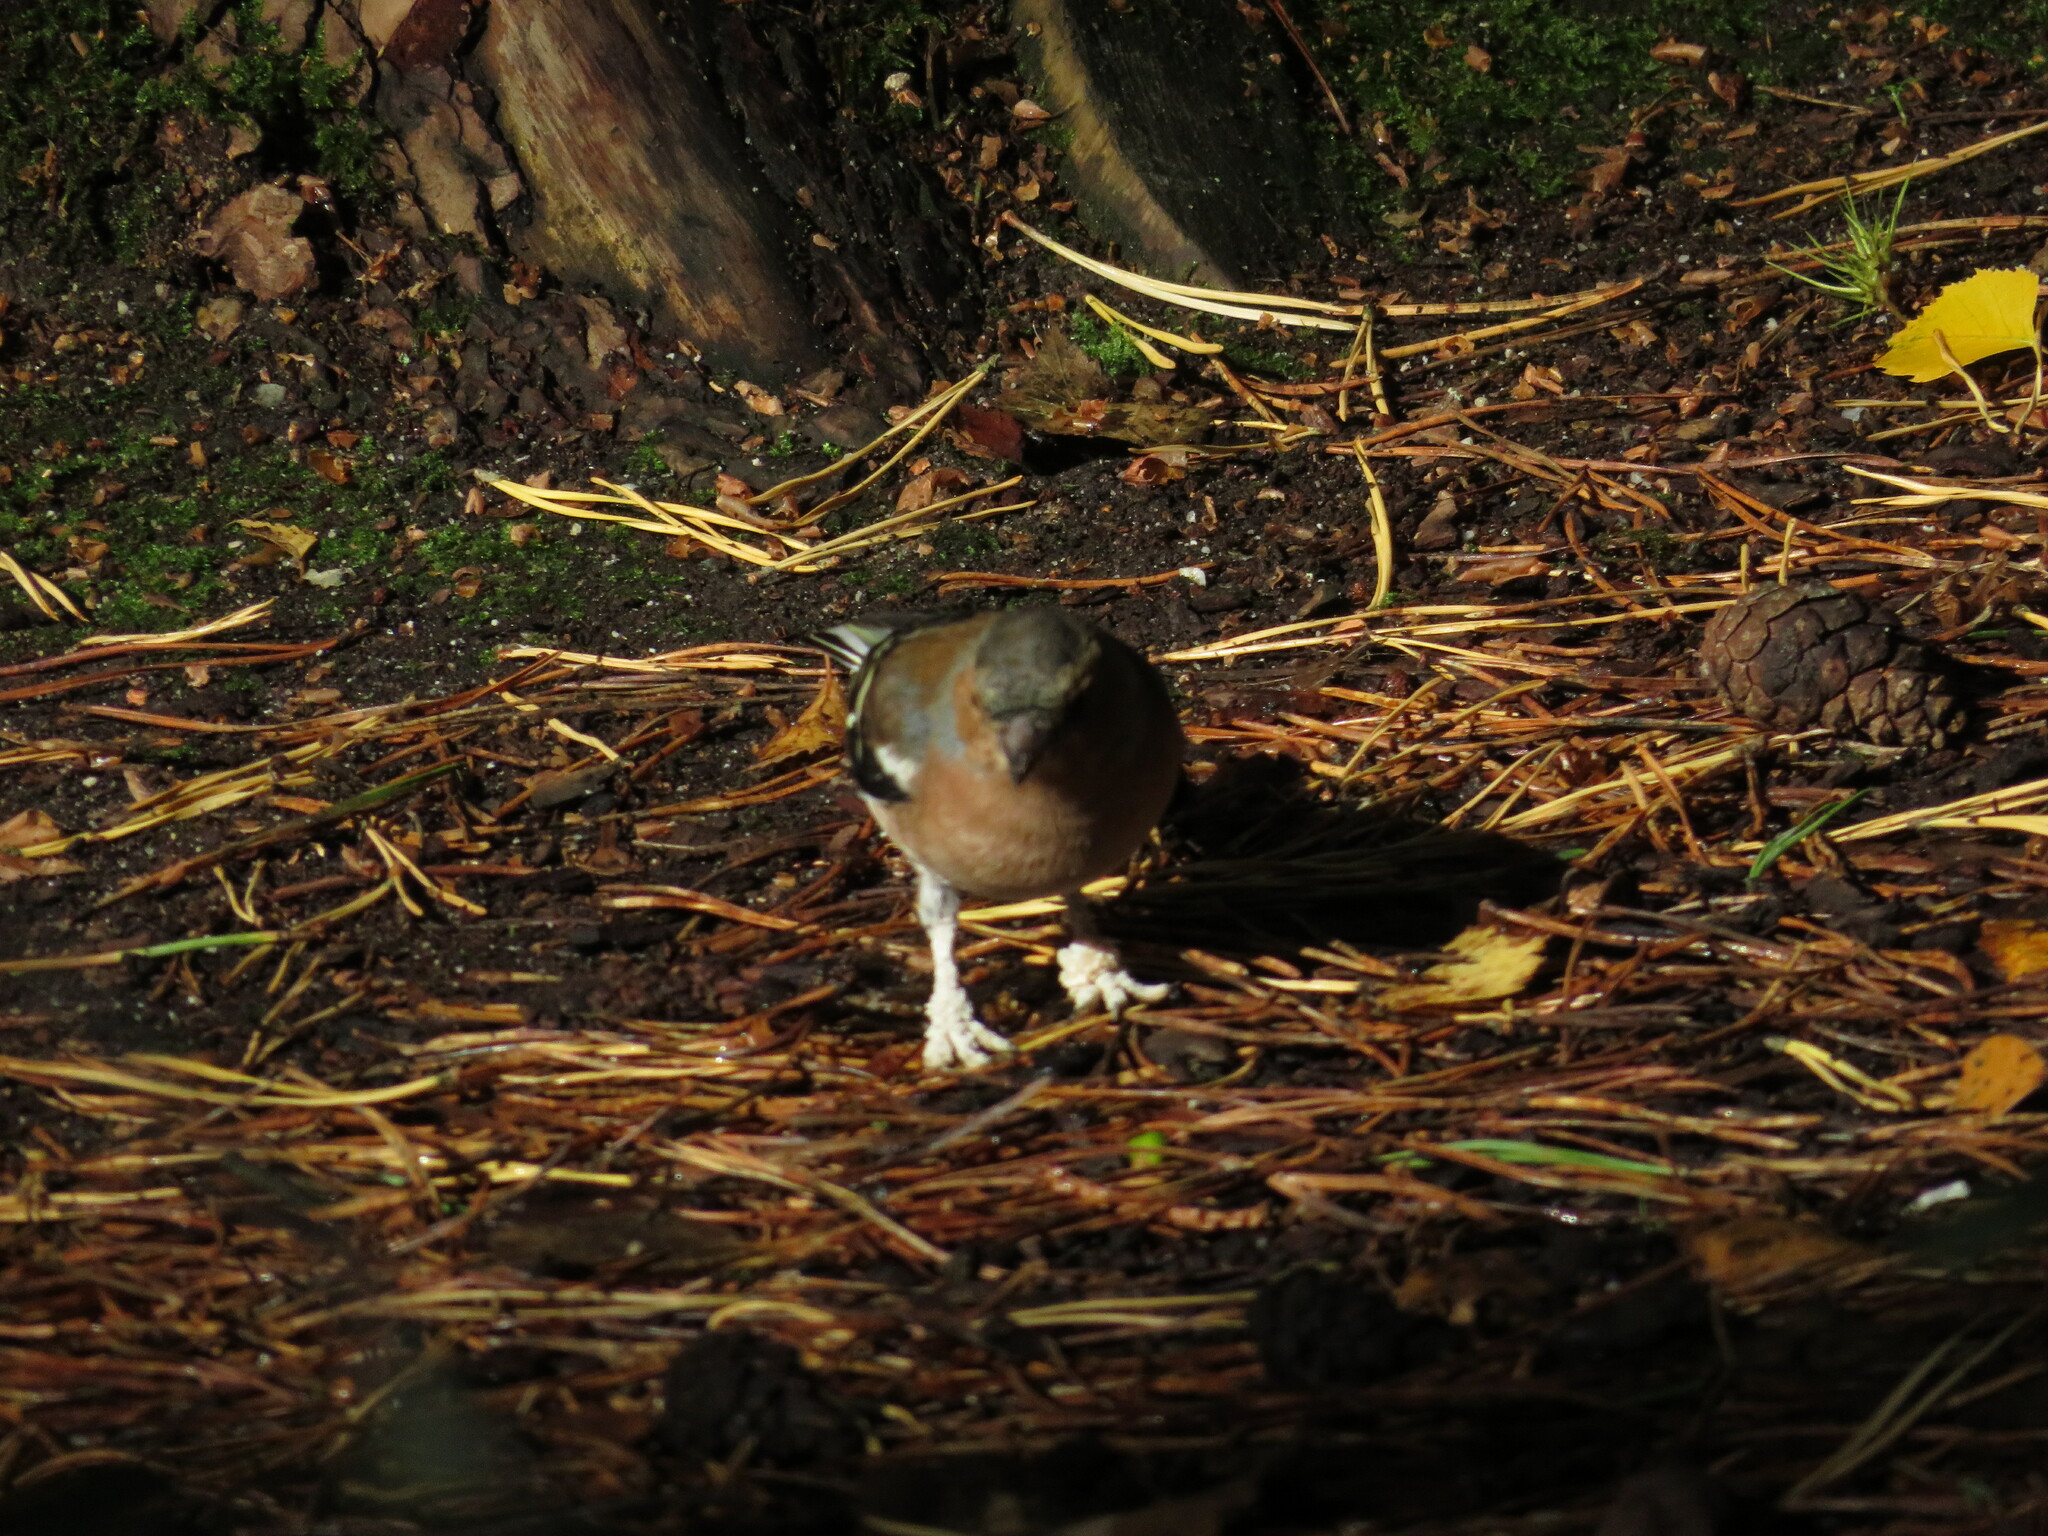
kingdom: Animalia
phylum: Chordata
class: Aves
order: Passeriformes
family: Fringillidae
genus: Fringilla
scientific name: Fringilla coelebs
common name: Common chaffinch
